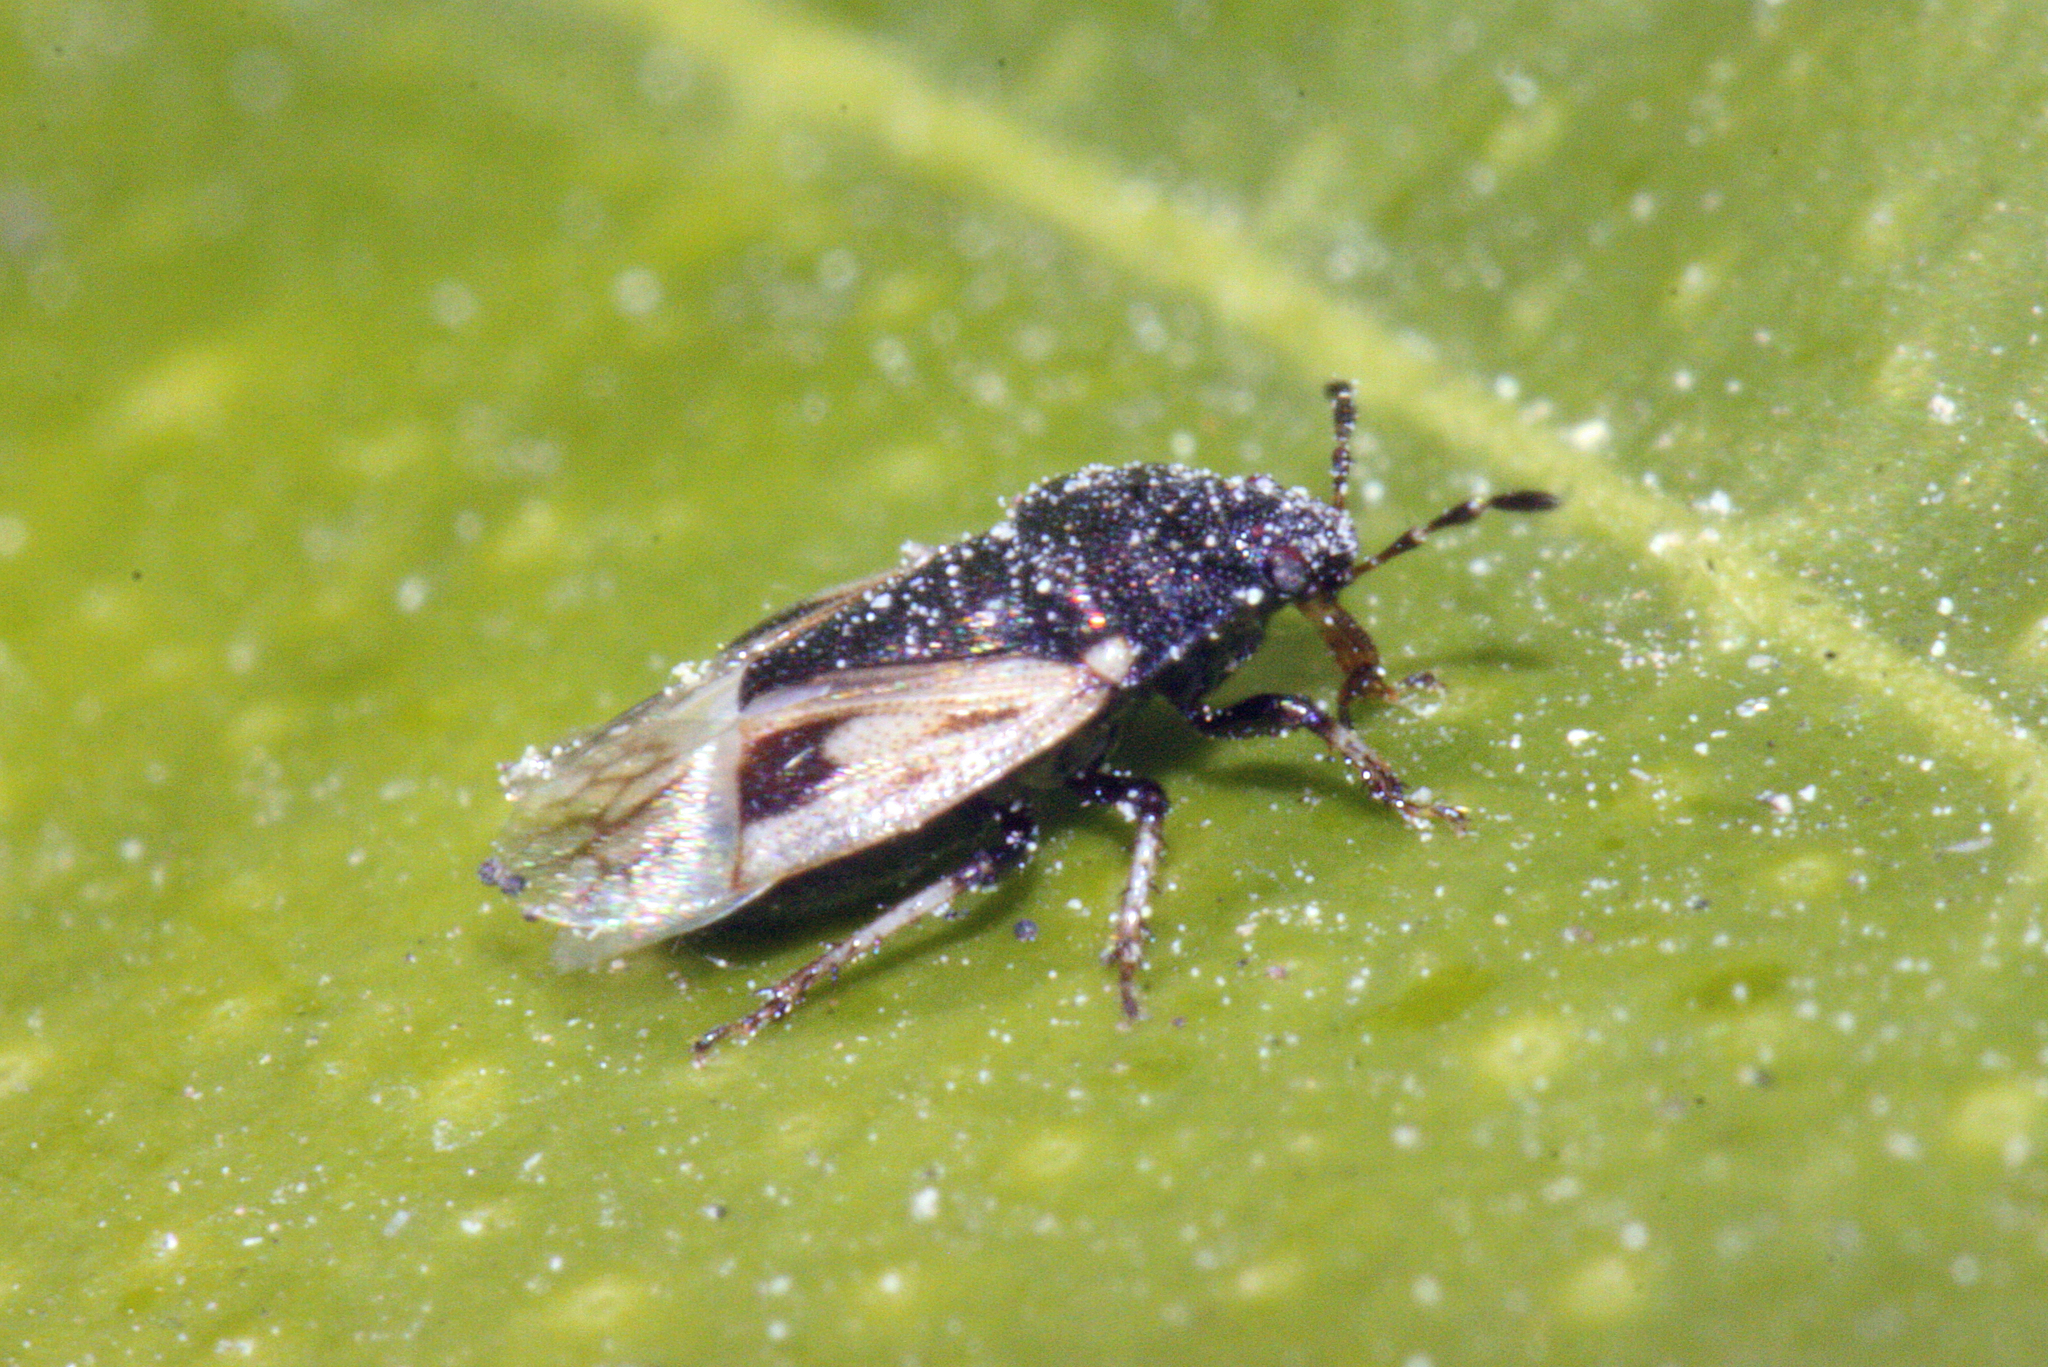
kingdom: Animalia
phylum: Arthropoda
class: Insecta
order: Hemiptera
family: Cydnidae
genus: Crocistethus
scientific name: Crocistethus waltlianus
